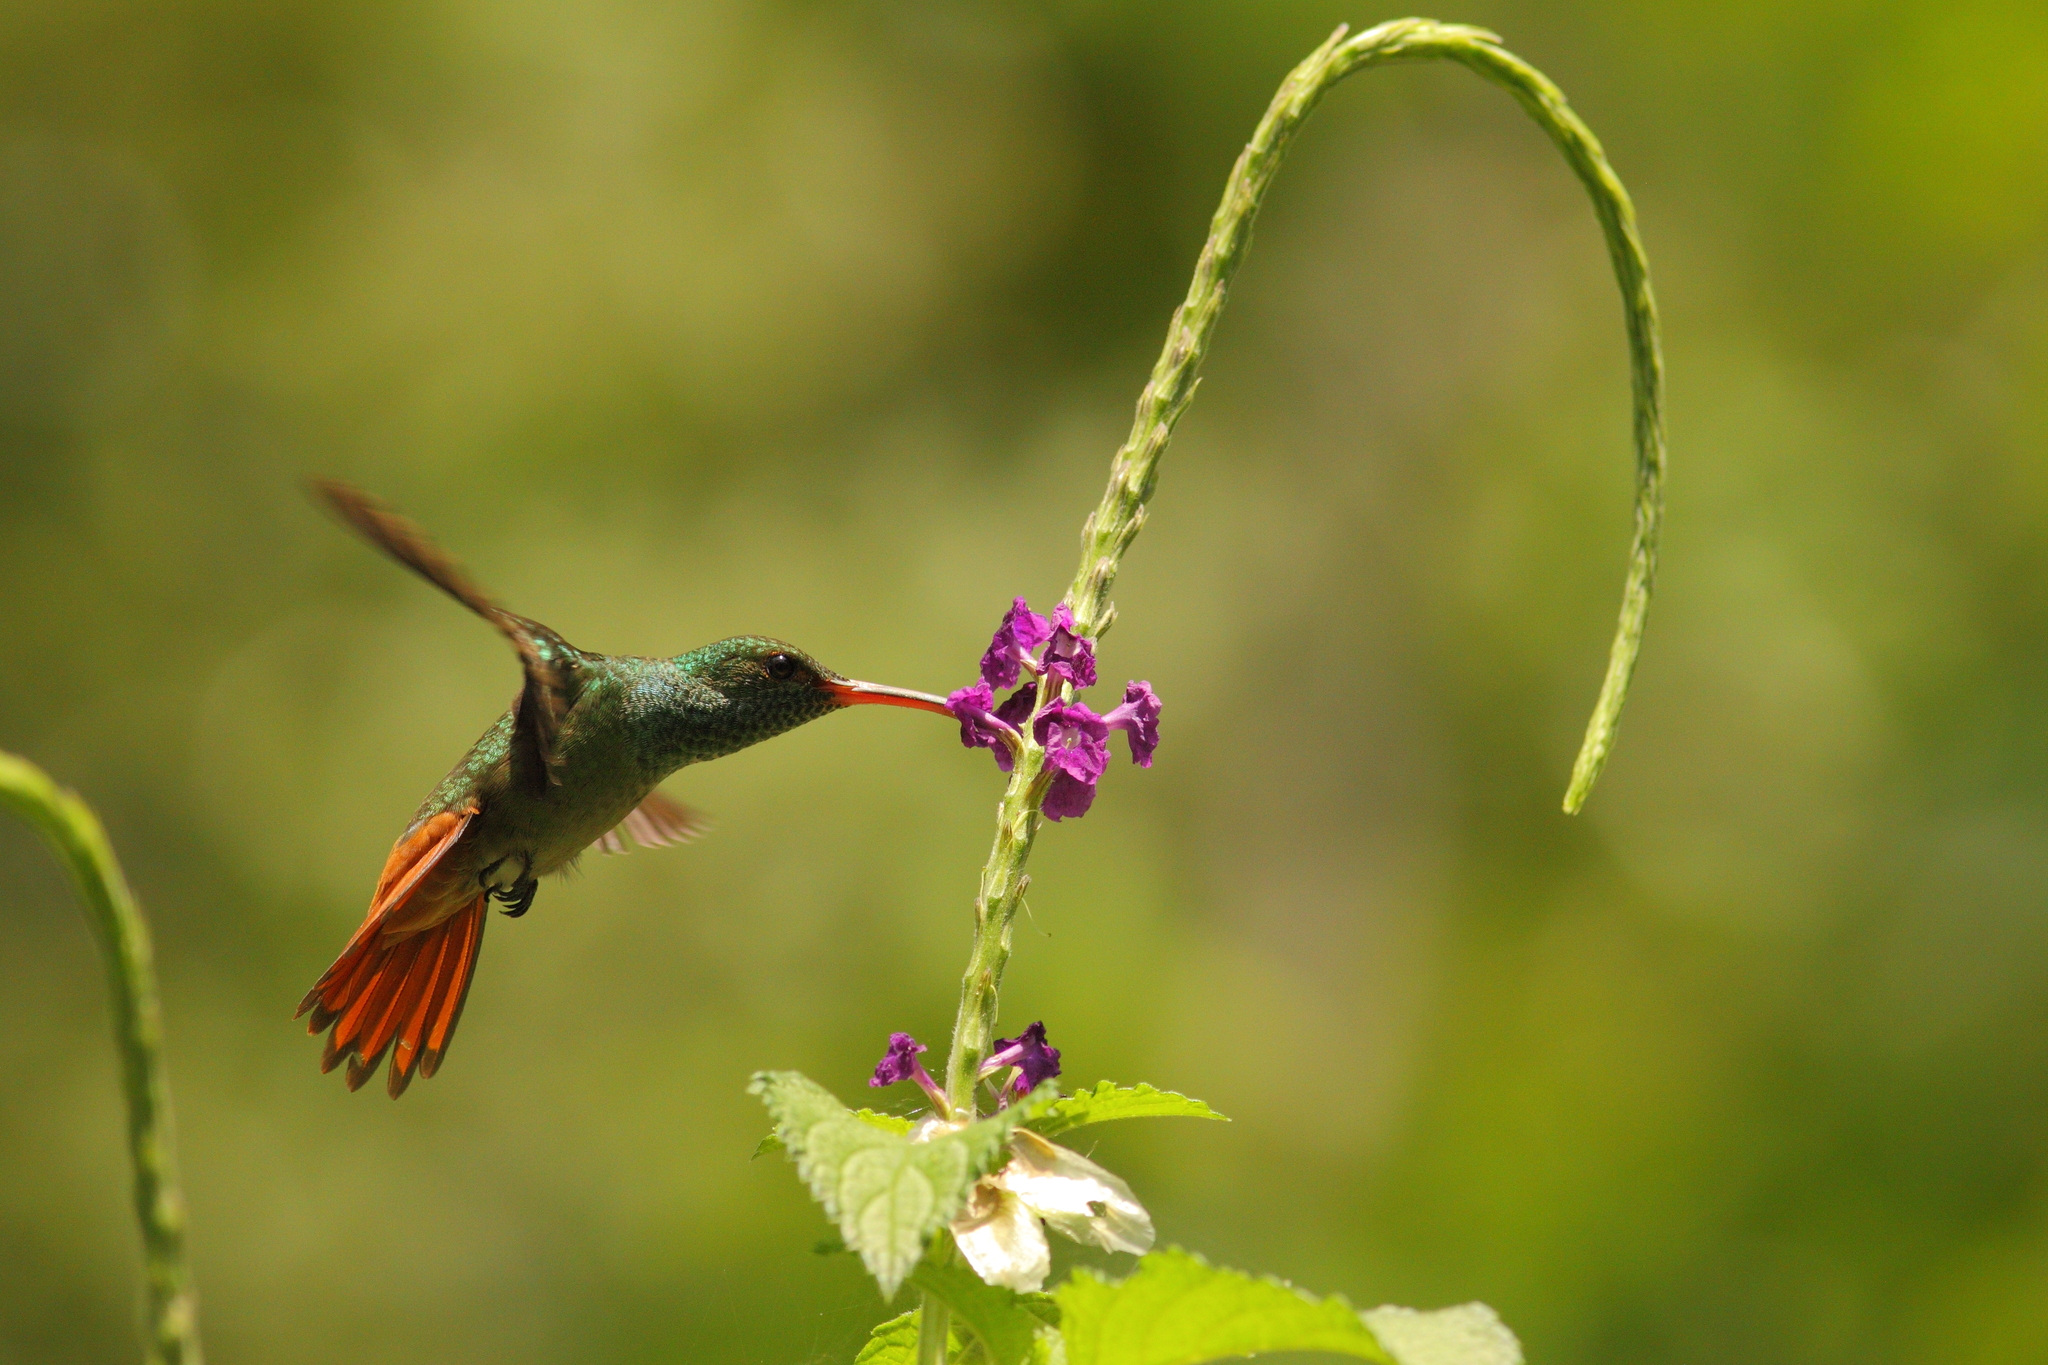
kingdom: Animalia
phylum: Chordata
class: Aves
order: Apodiformes
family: Trochilidae
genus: Amazilia
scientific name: Amazilia tzacatl
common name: Rufous-tailed hummingbird
